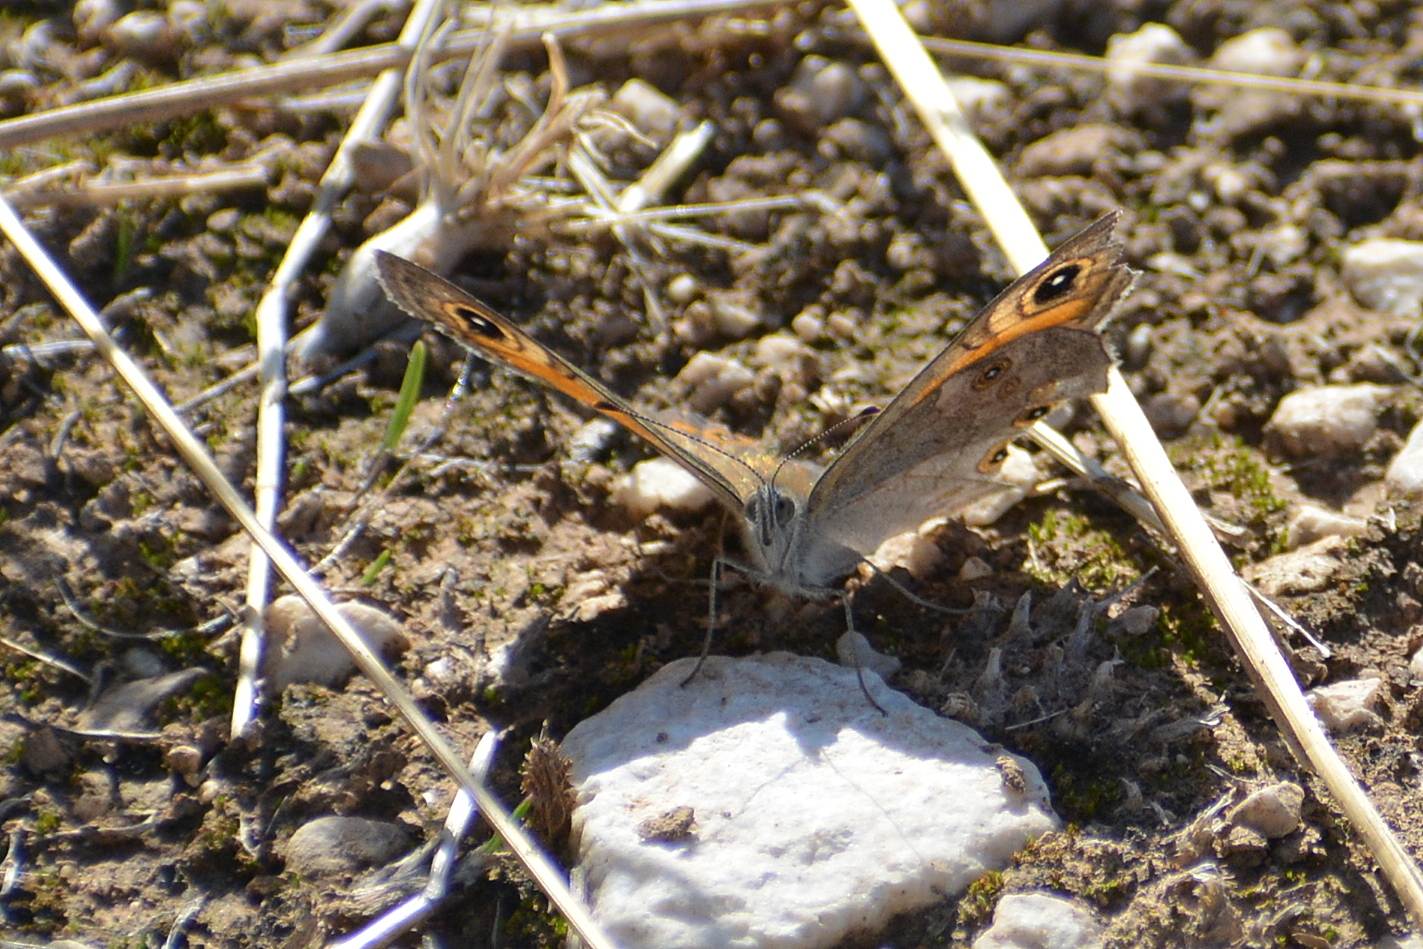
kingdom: Animalia
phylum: Arthropoda
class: Insecta
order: Lepidoptera
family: Nymphalidae
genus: Pararge
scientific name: Pararge Lasiommata maera
